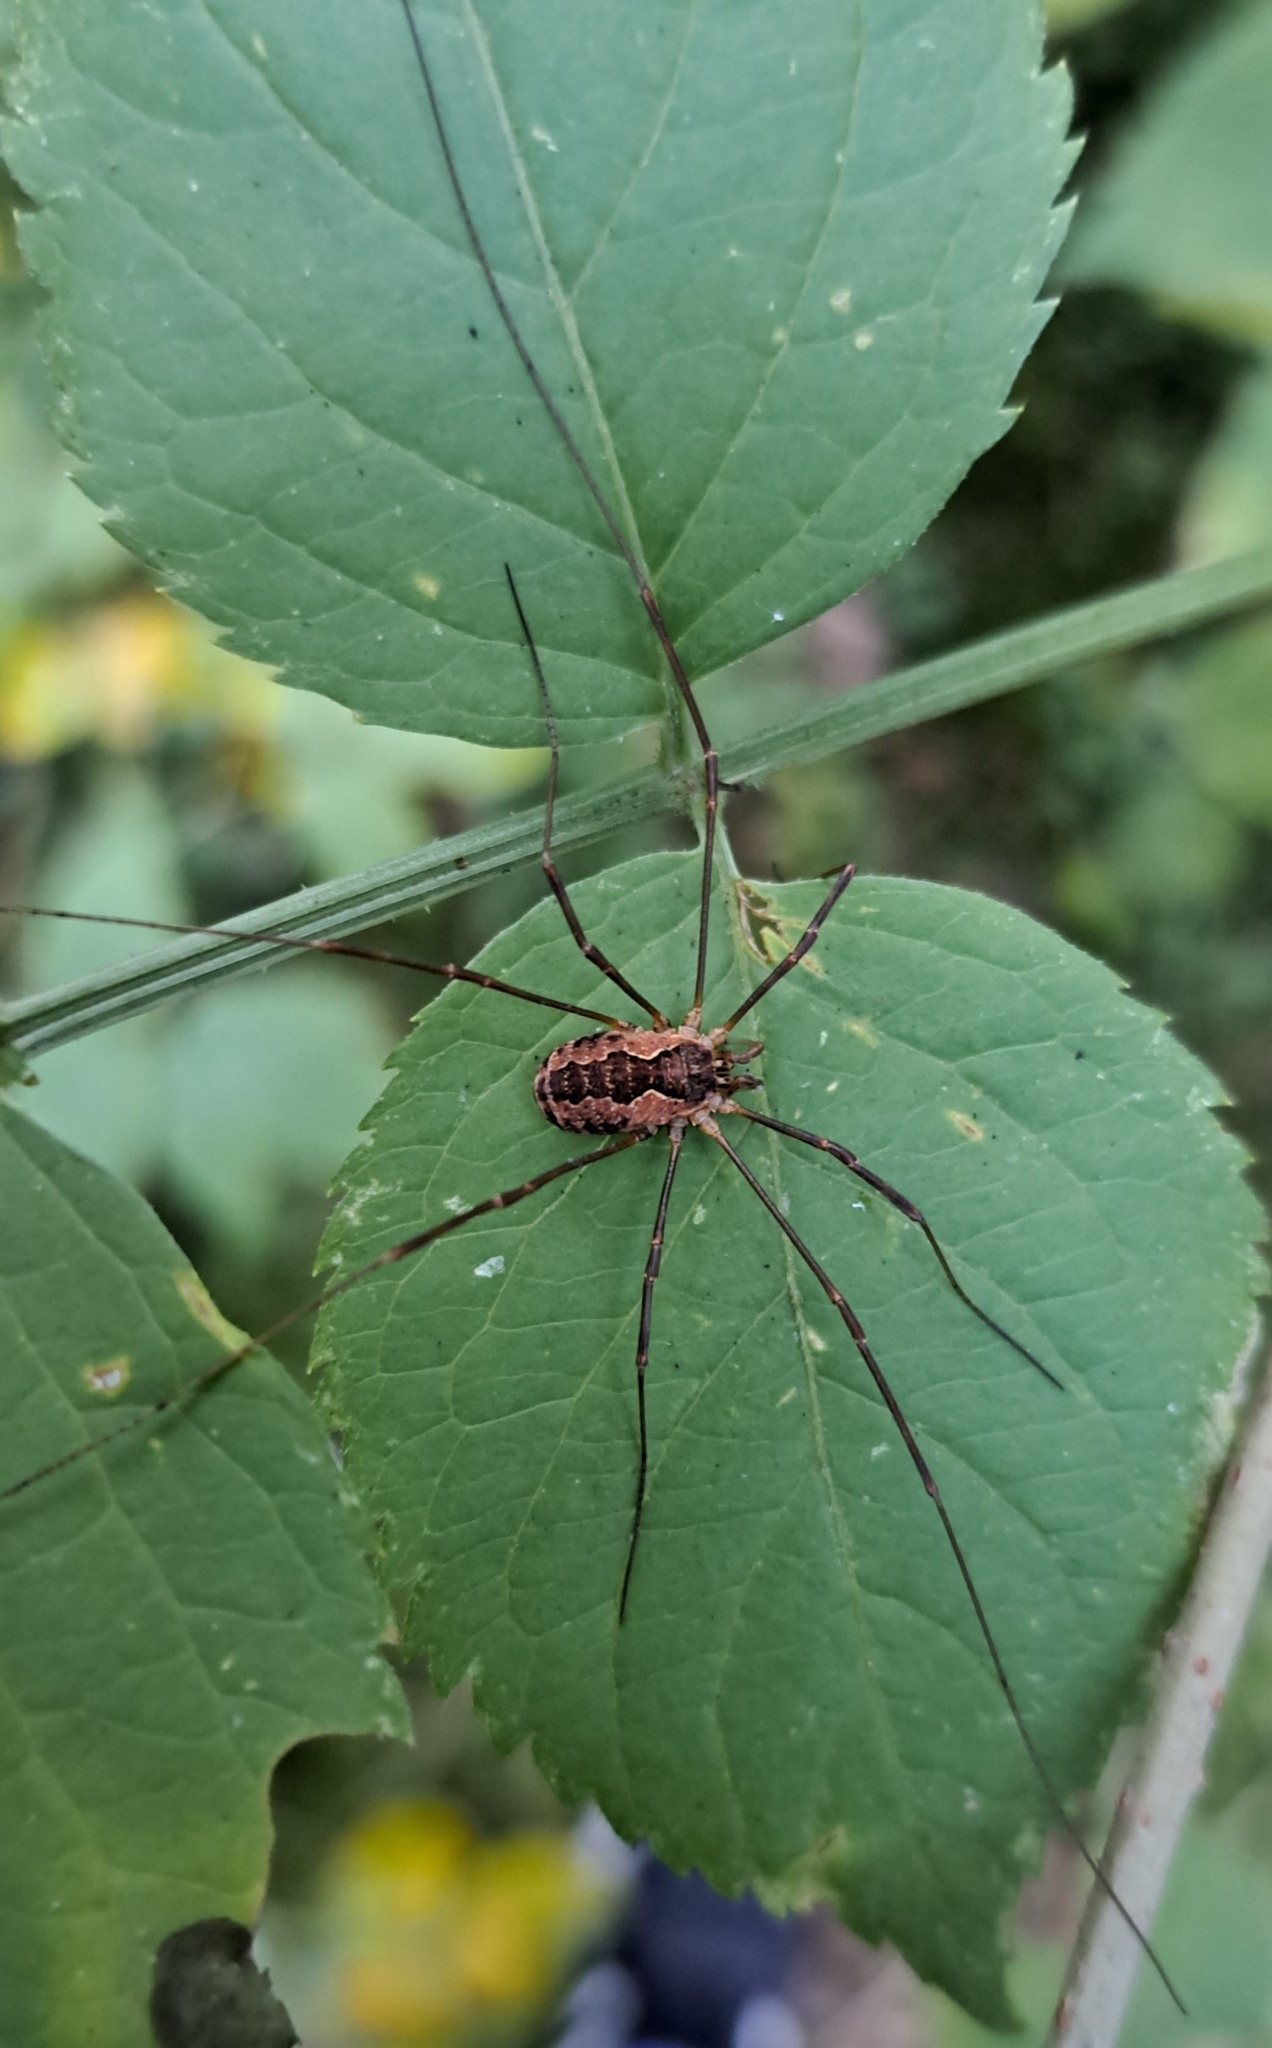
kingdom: Animalia
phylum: Arthropoda
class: Arachnida
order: Opiliones
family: Phalangiidae
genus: Mitopus
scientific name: Mitopus morio
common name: Saddleback harvestman
